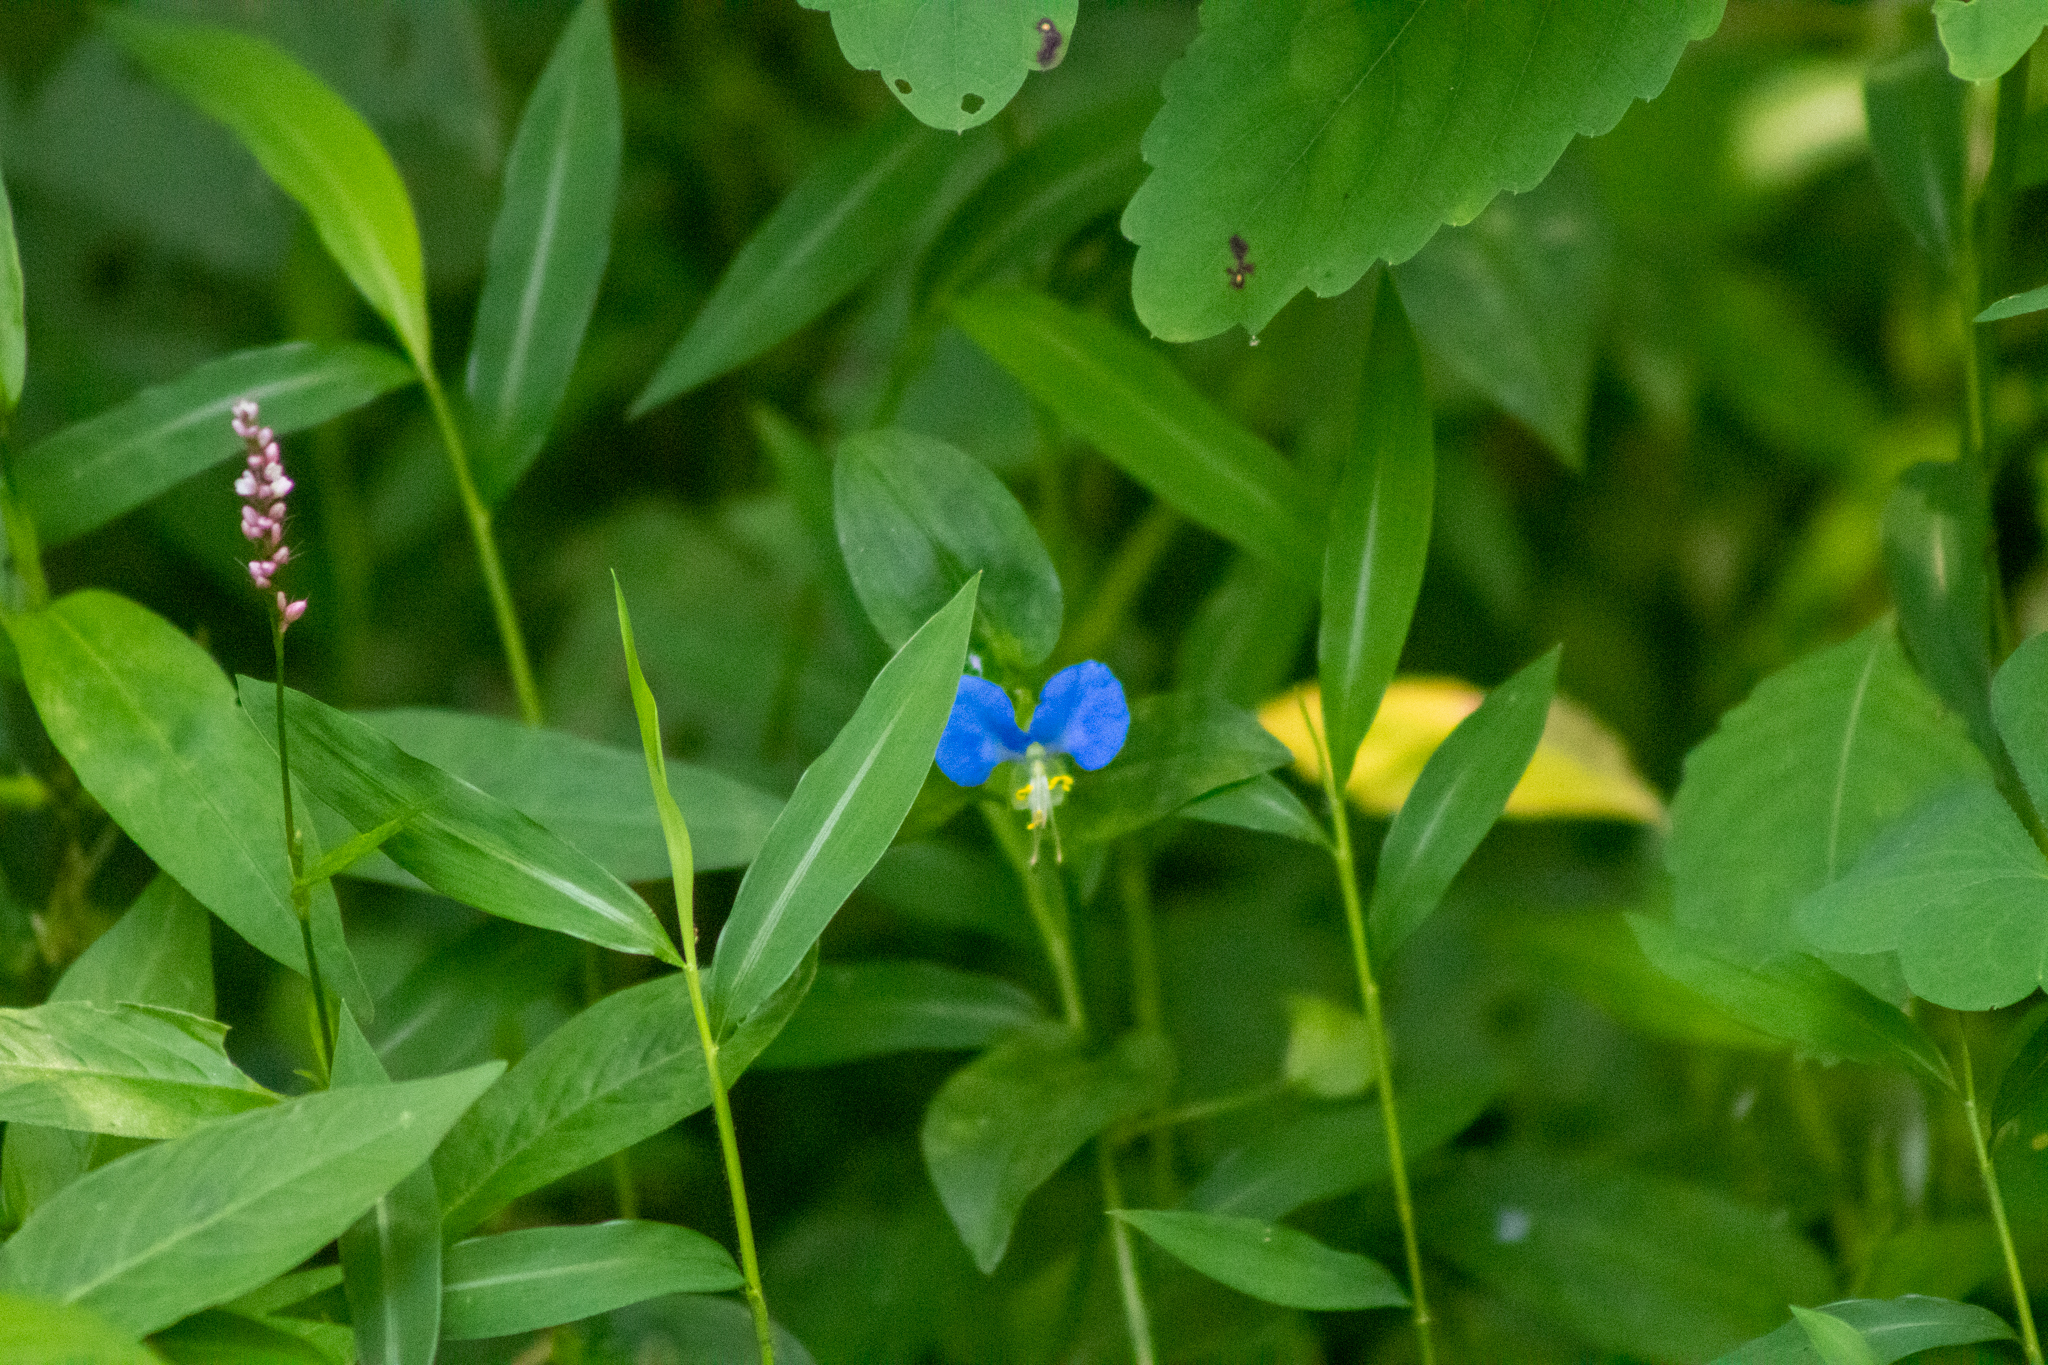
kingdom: Plantae
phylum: Tracheophyta
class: Liliopsida
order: Commelinales
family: Commelinaceae
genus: Commelina
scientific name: Commelina communis
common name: Asiatic dayflower
